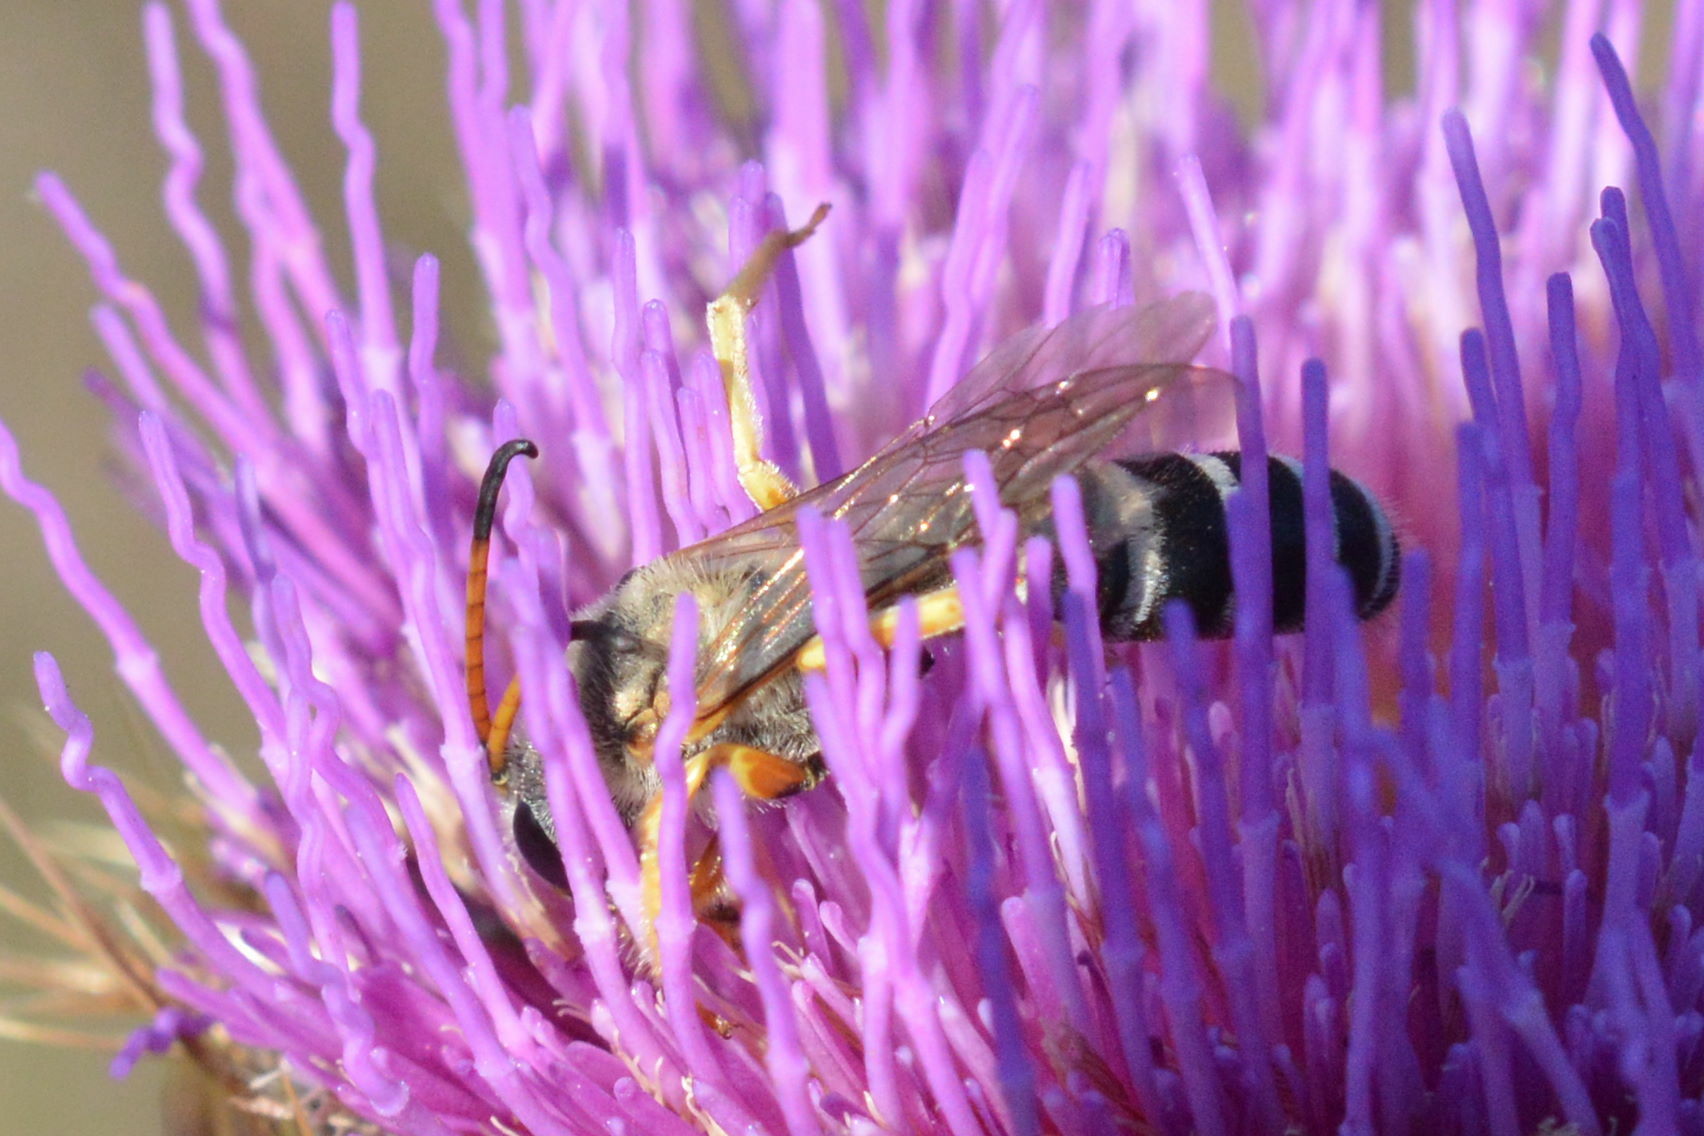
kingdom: Animalia
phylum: Arthropoda
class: Insecta
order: Hymenoptera
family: Halictidae
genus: Halictus
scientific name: Halictus sexcinctus
